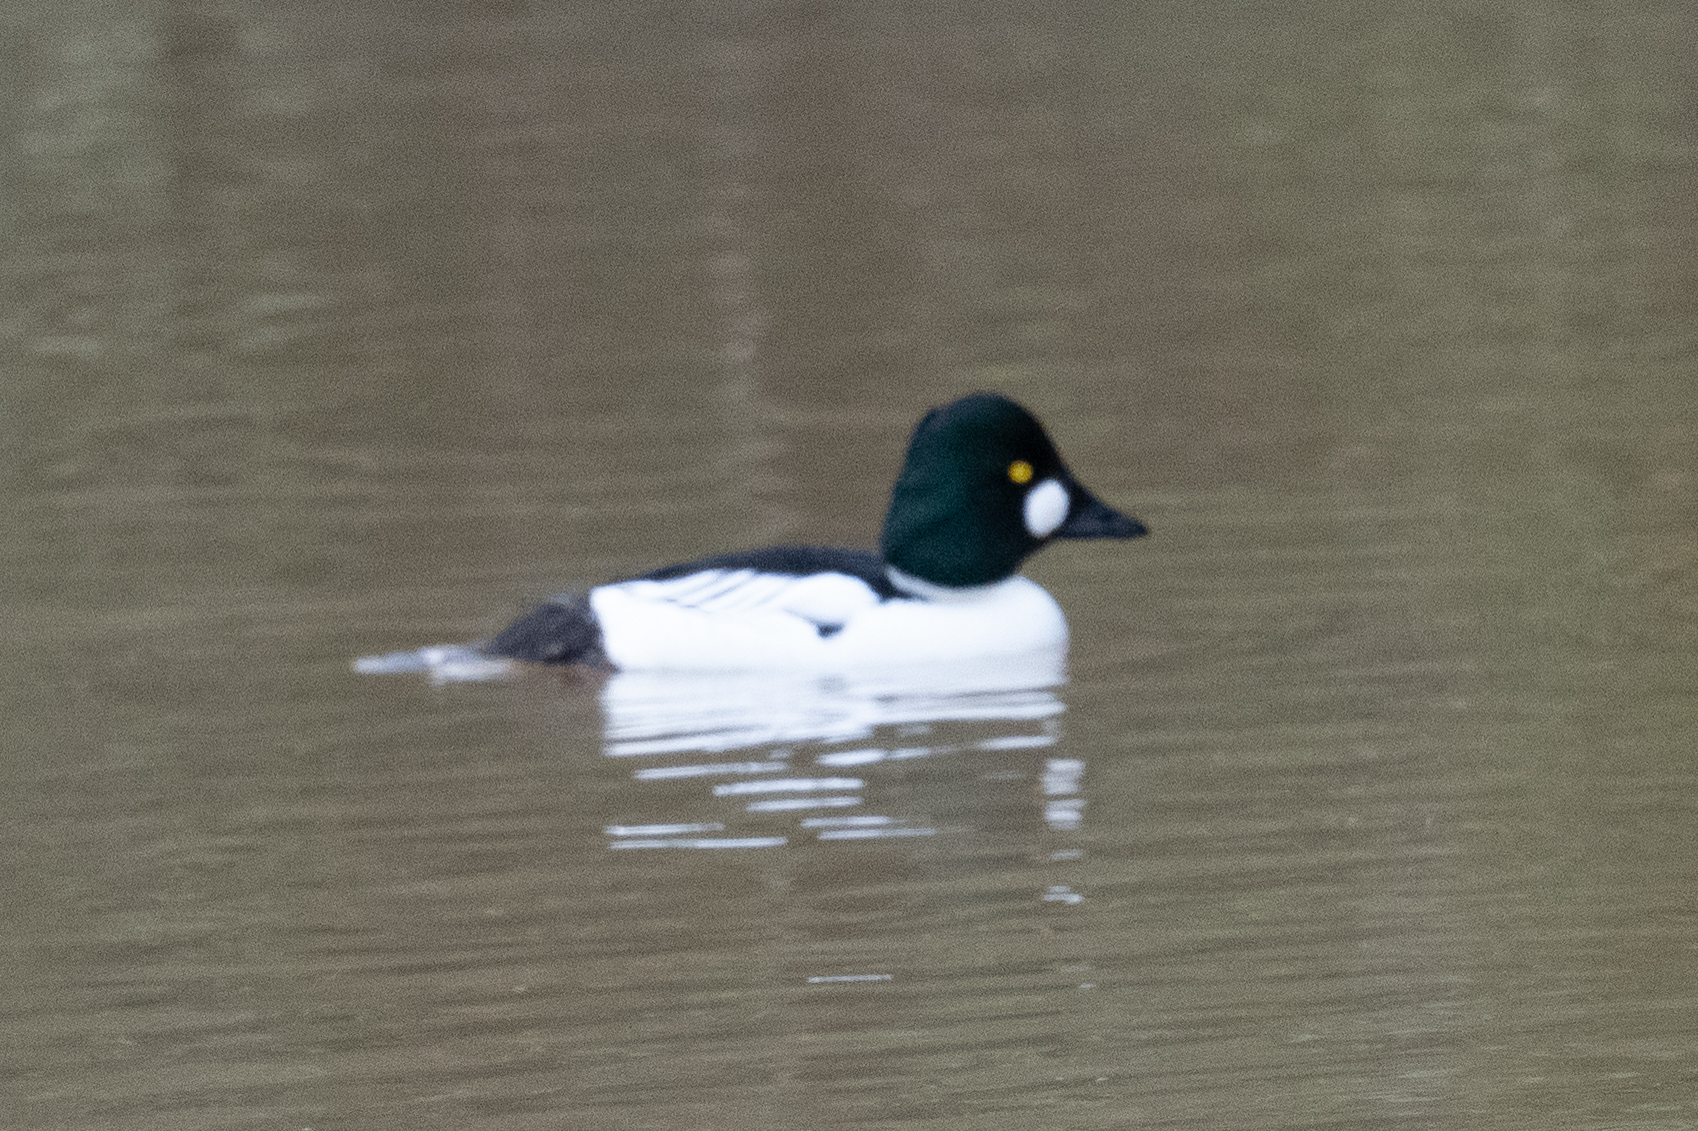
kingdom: Animalia
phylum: Chordata
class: Aves
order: Anseriformes
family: Anatidae
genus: Bucephala
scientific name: Bucephala clangula
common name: Common goldeneye
